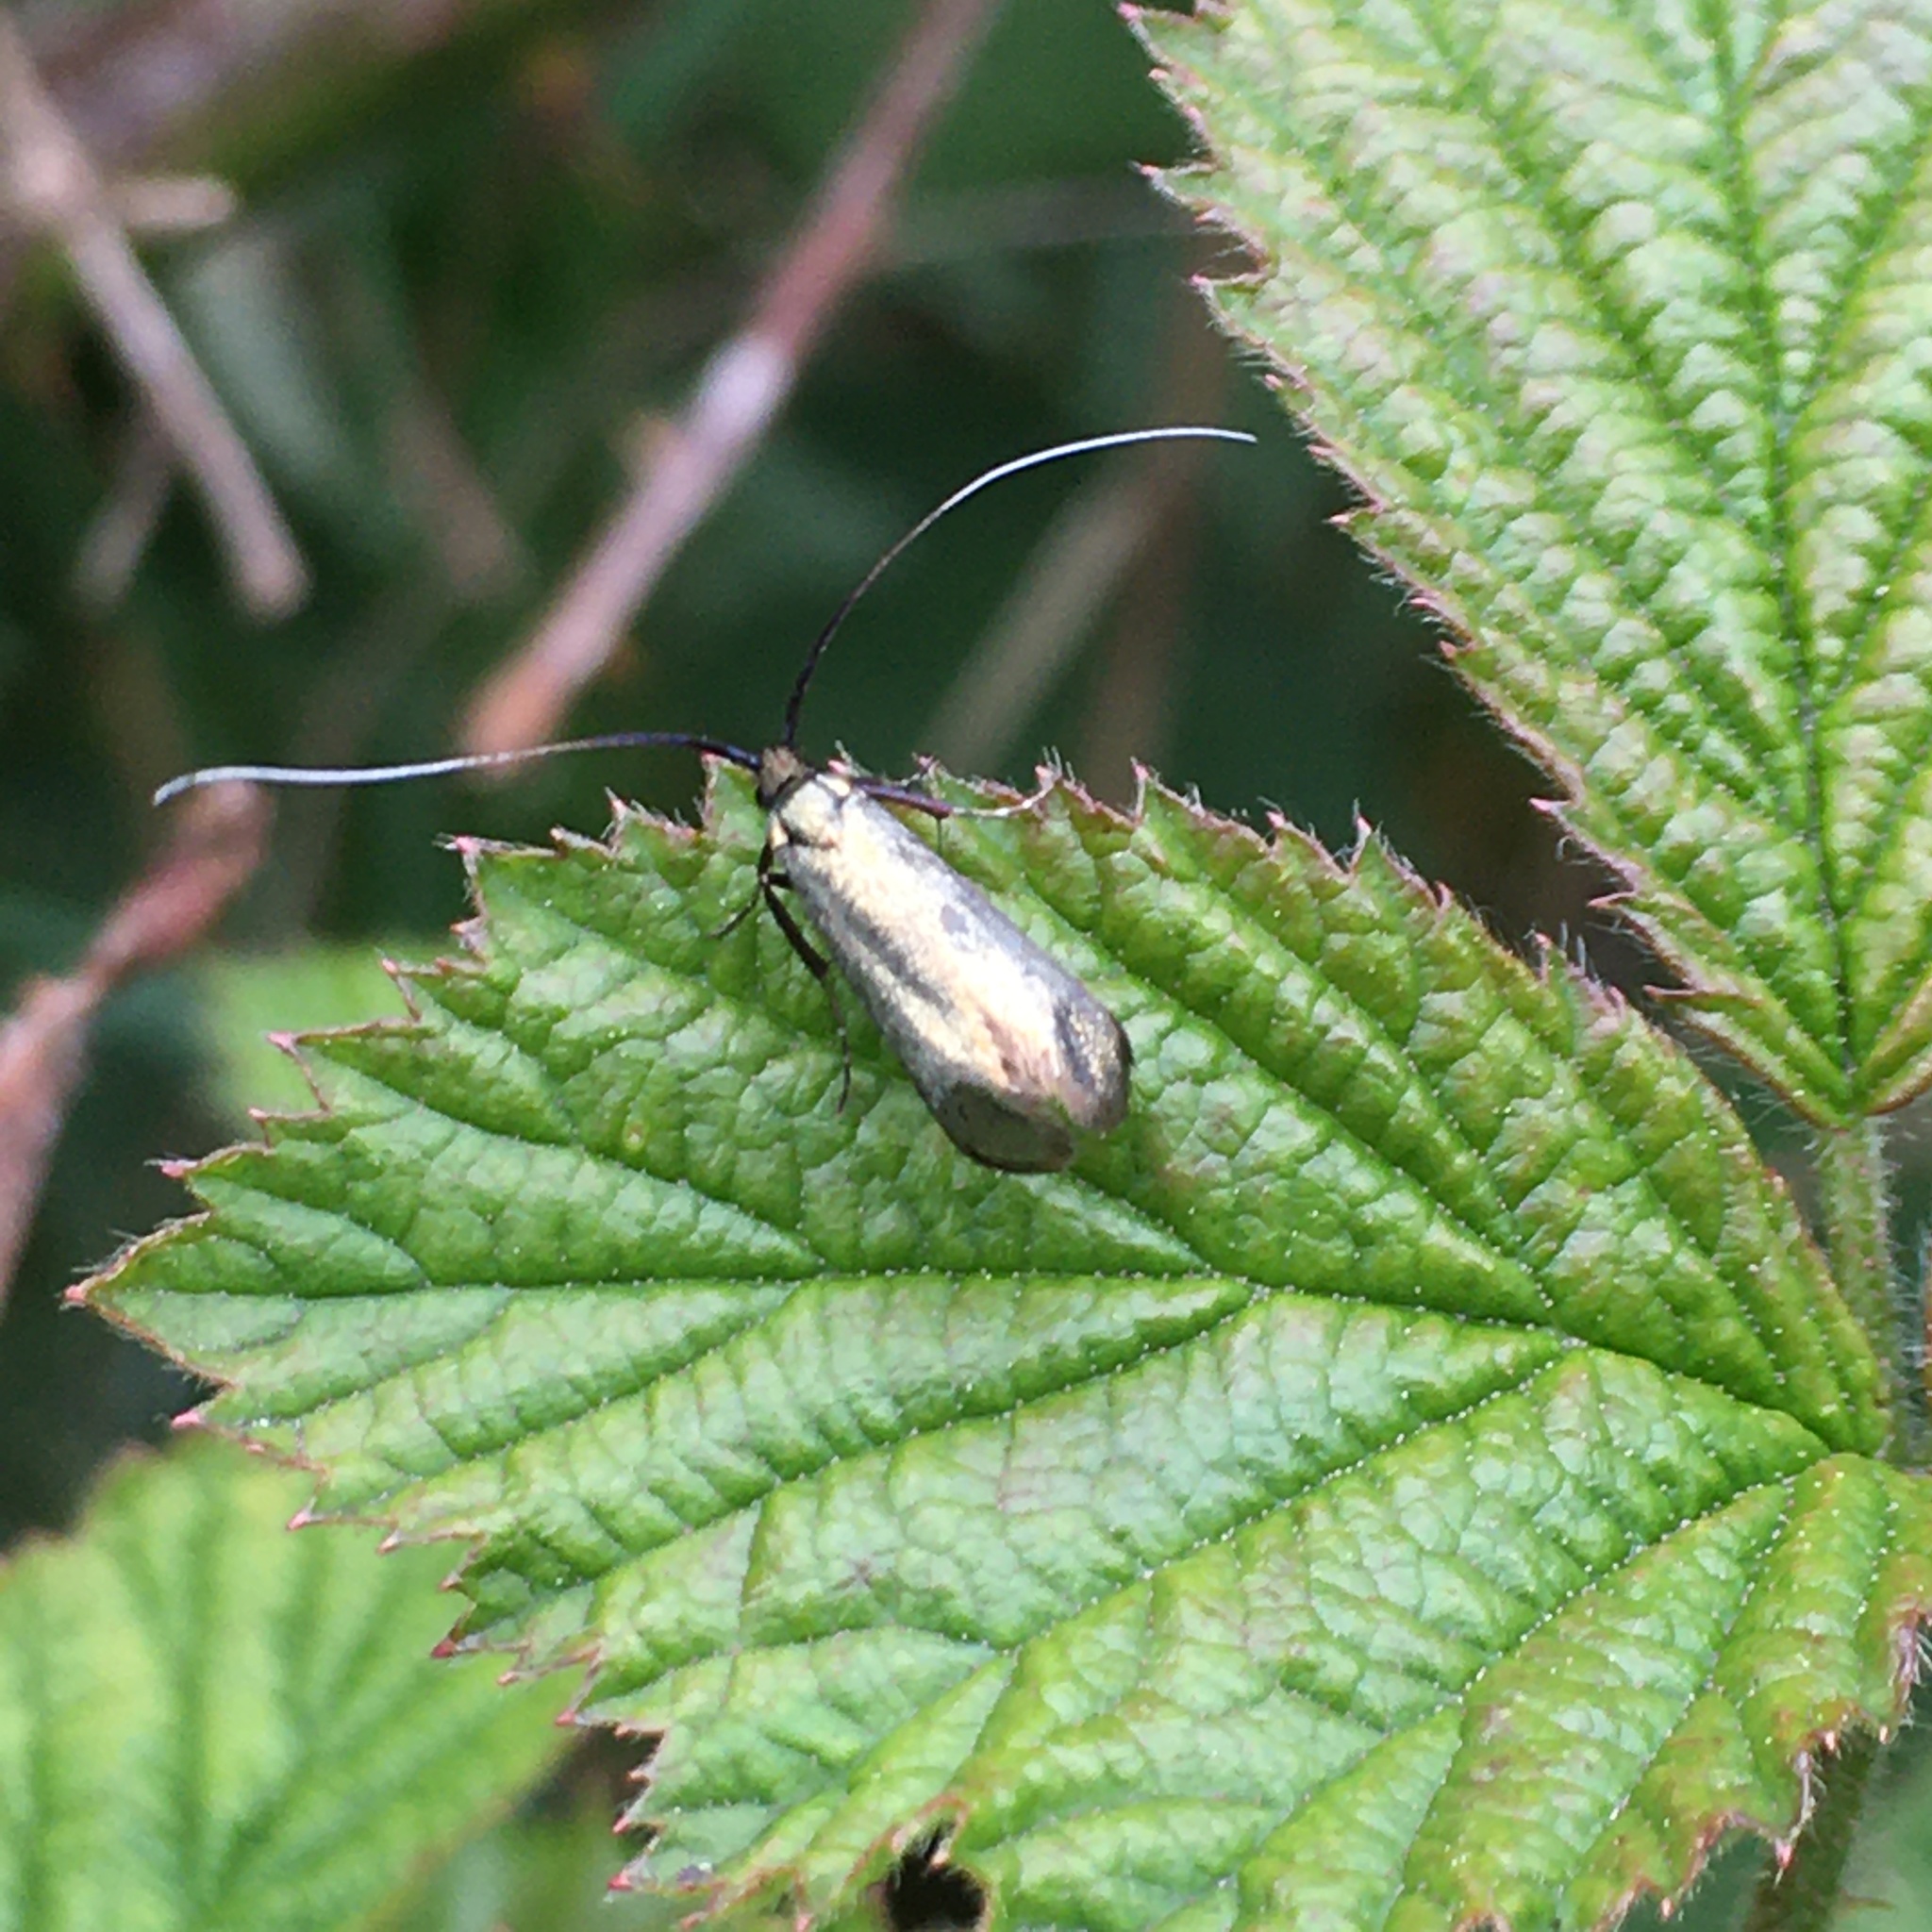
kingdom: Animalia
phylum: Arthropoda
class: Insecta
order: Lepidoptera
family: Adelidae
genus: Adela
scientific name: Adela viridella
